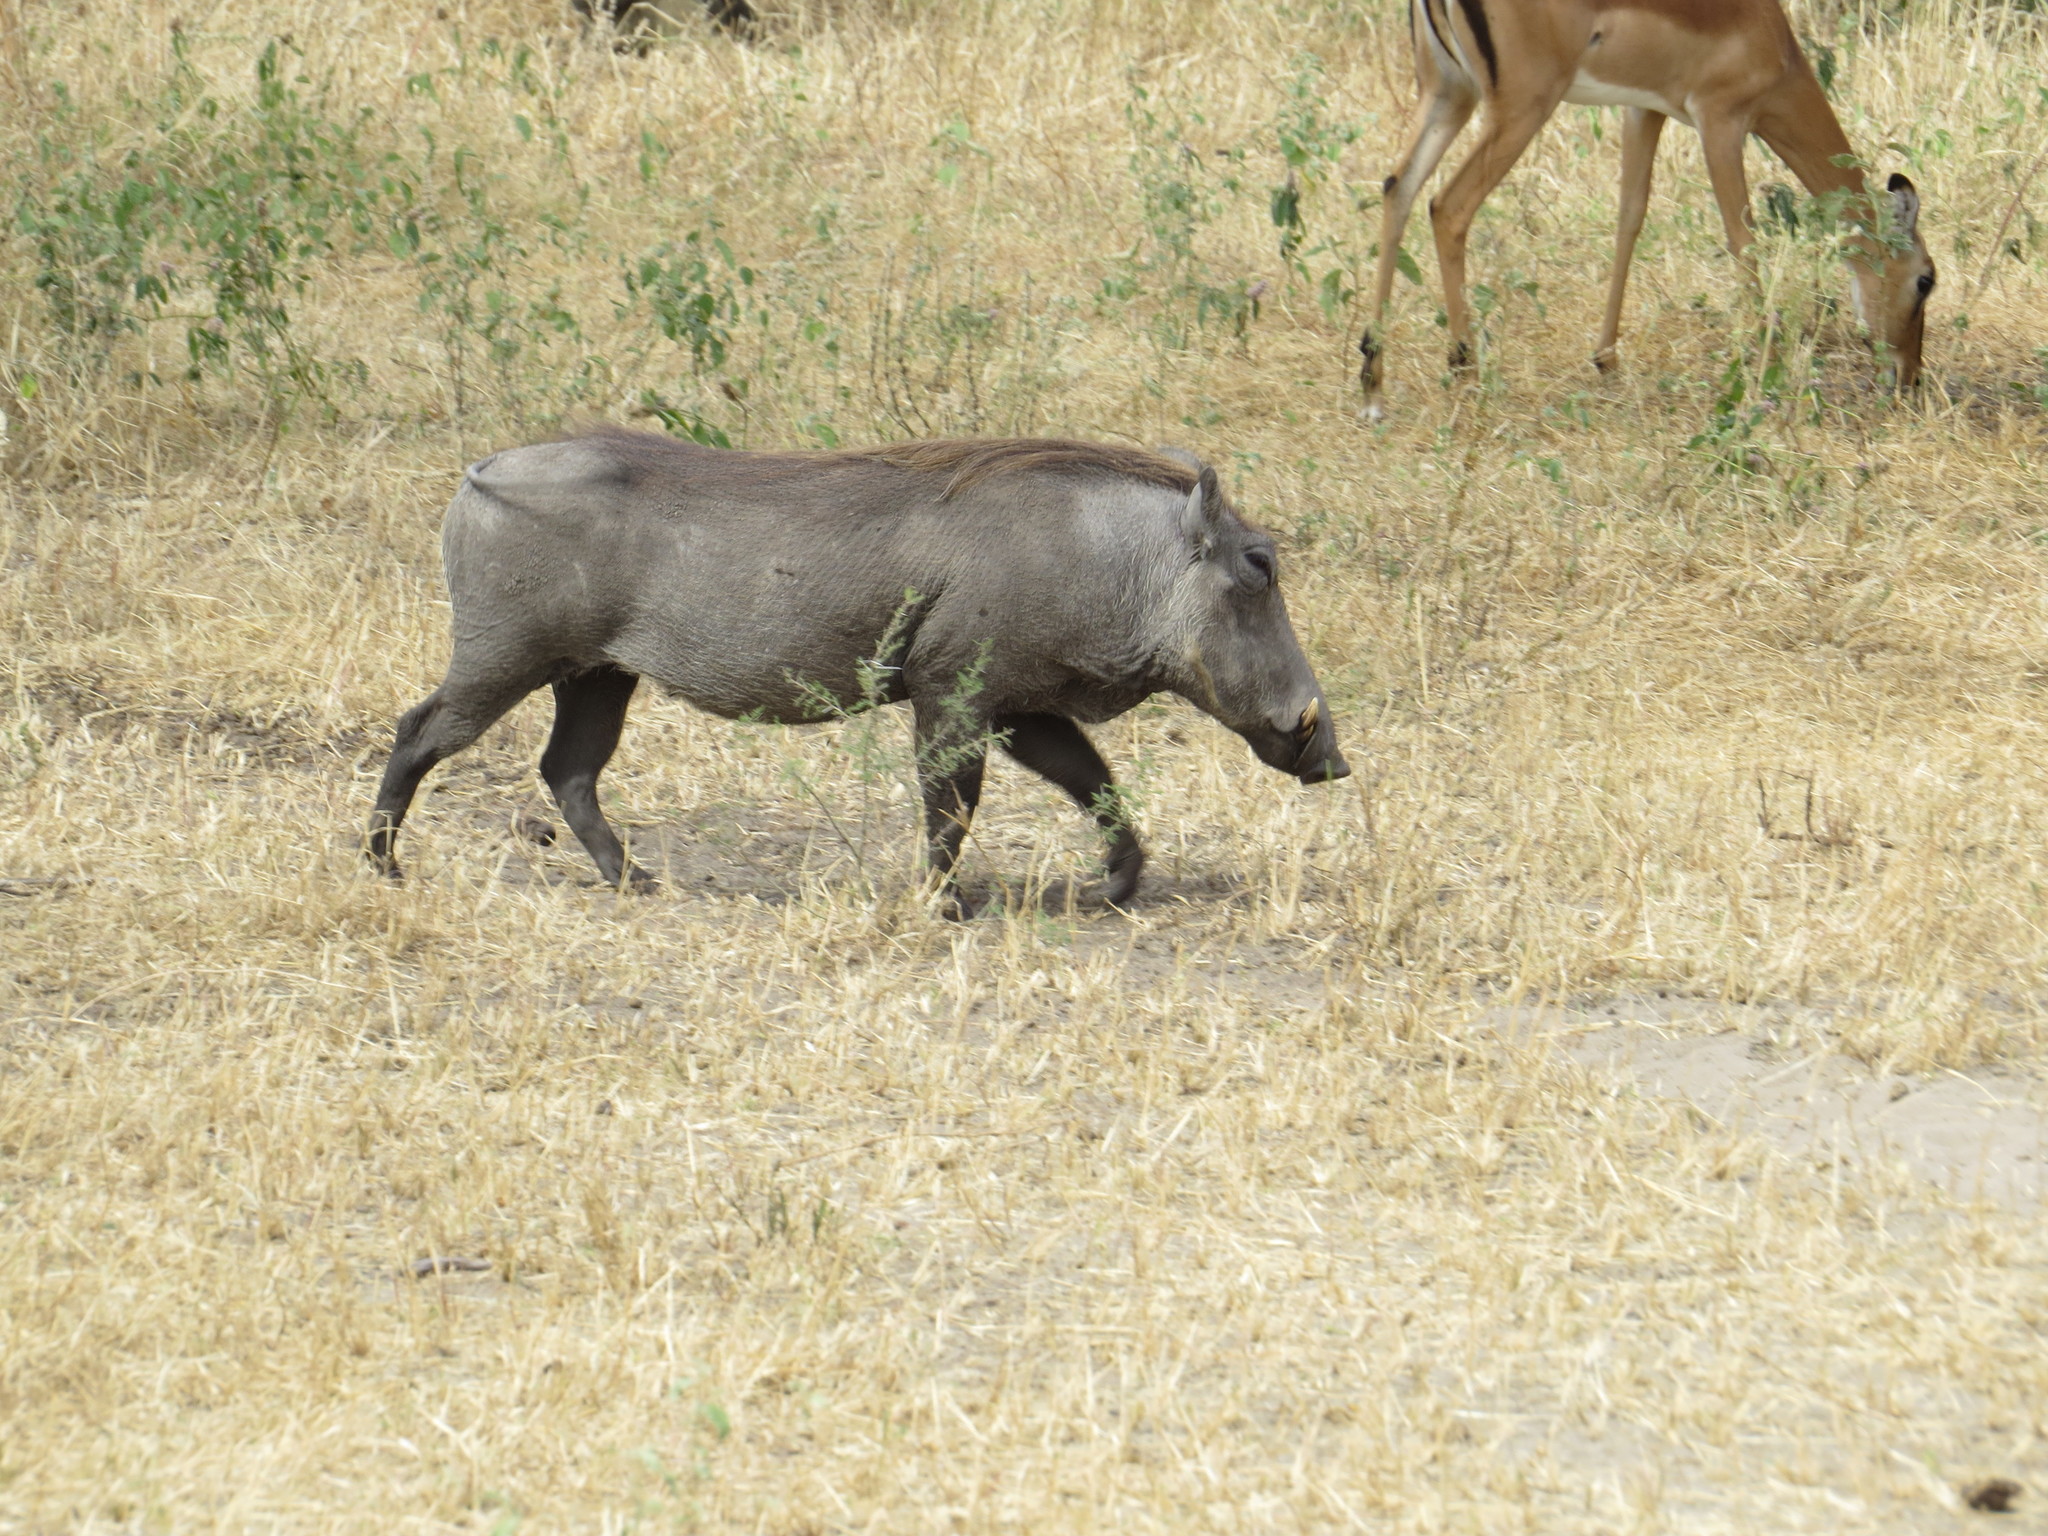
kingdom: Animalia
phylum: Chordata
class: Mammalia
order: Artiodactyla
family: Suidae
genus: Phacochoerus
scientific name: Phacochoerus africanus
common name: Common warthog
